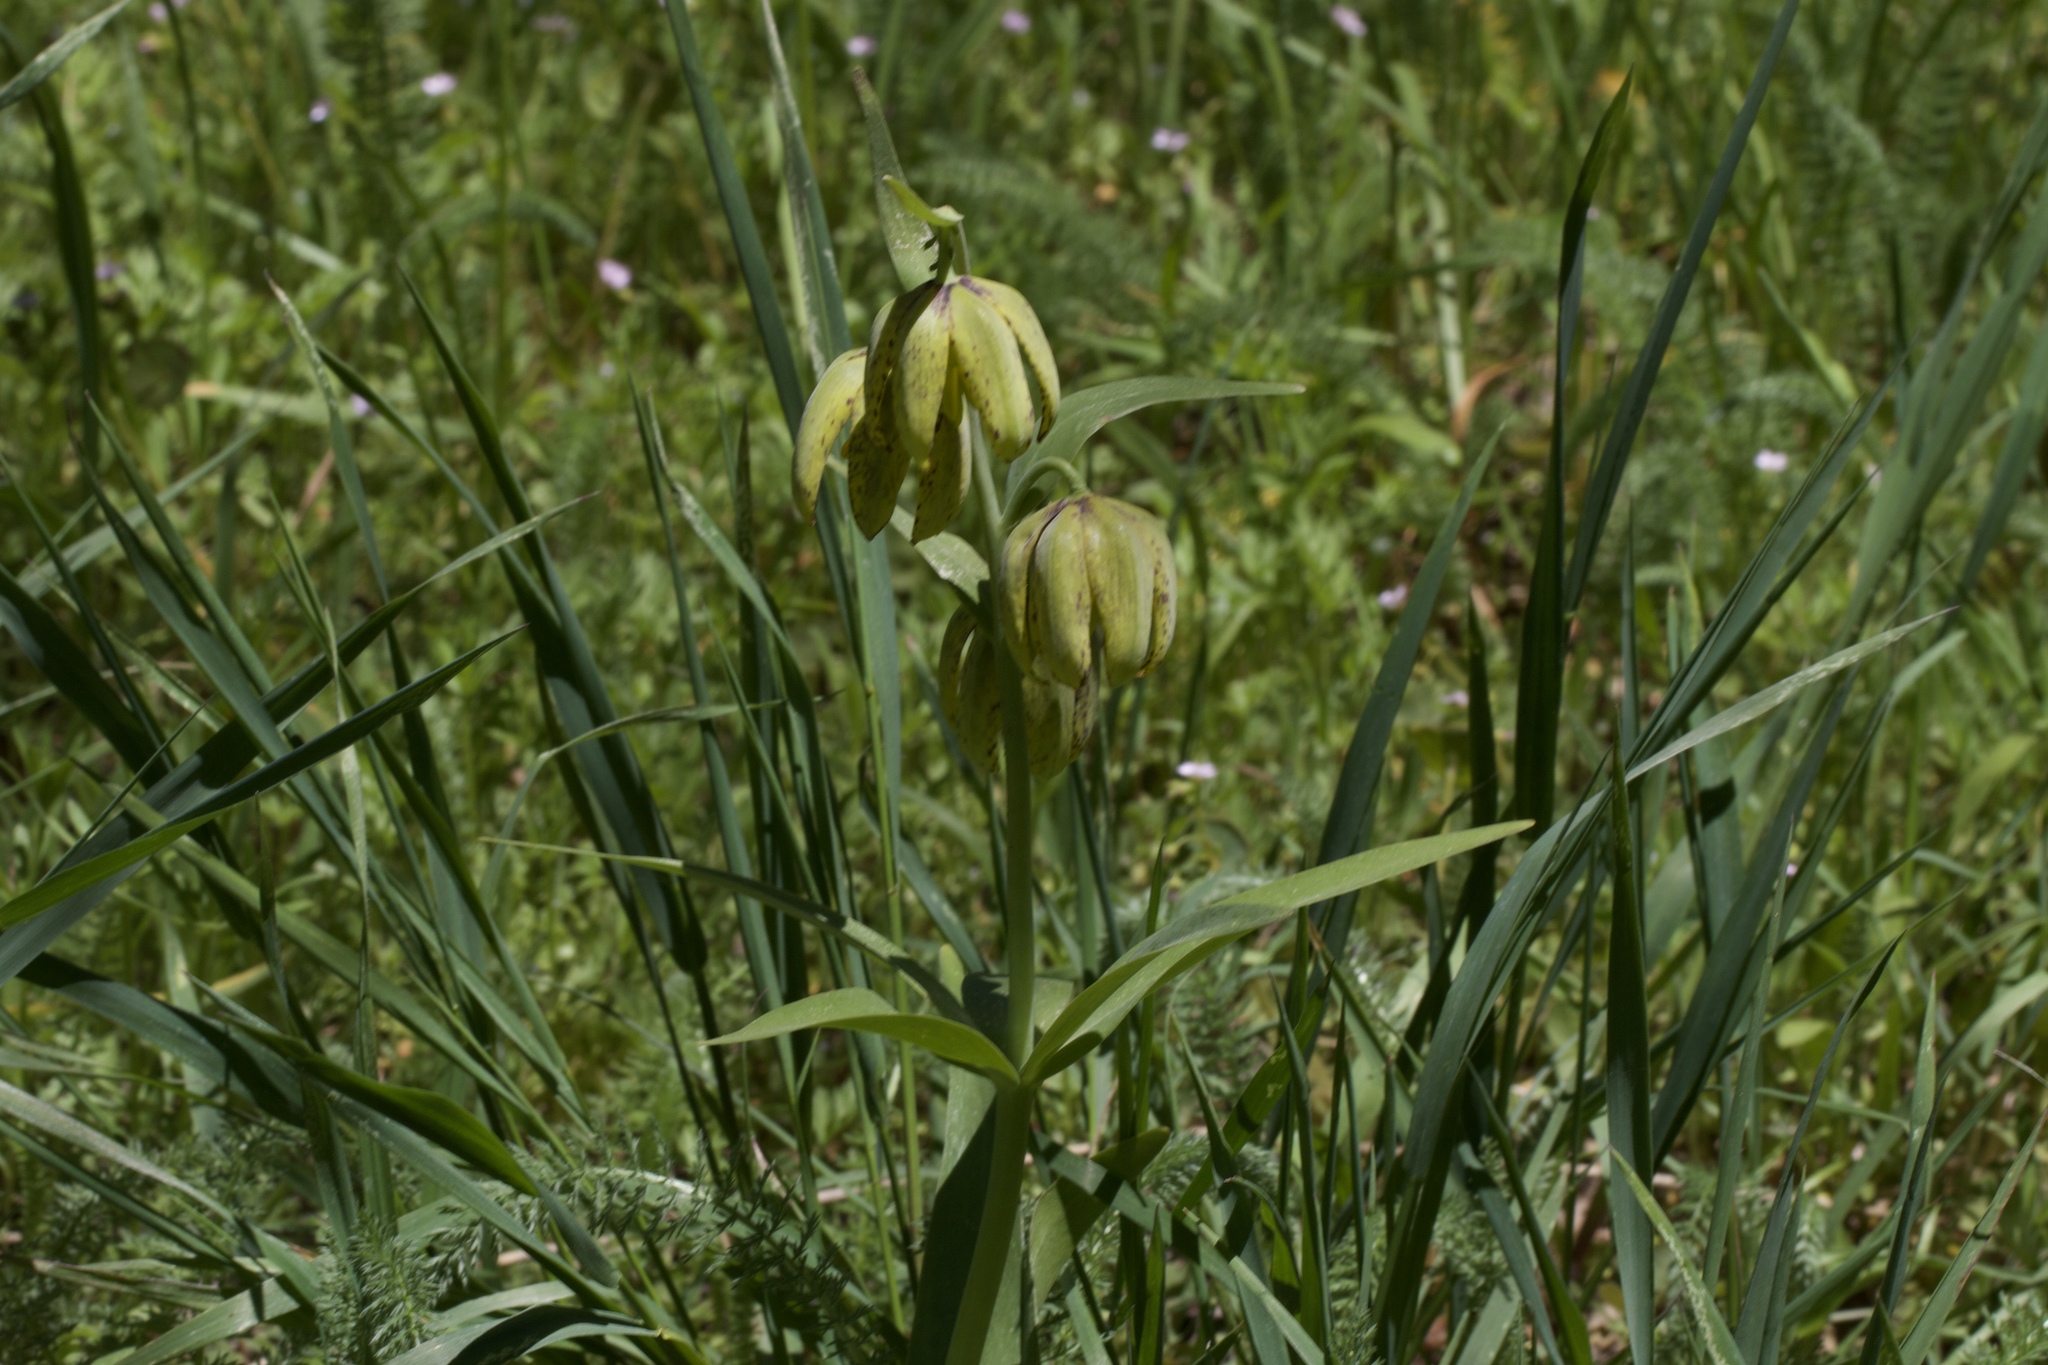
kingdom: Plantae
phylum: Tracheophyta
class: Liliopsida
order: Liliales
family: Liliaceae
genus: Fritillaria
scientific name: Fritillaria affinis
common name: Ojai fritillary
